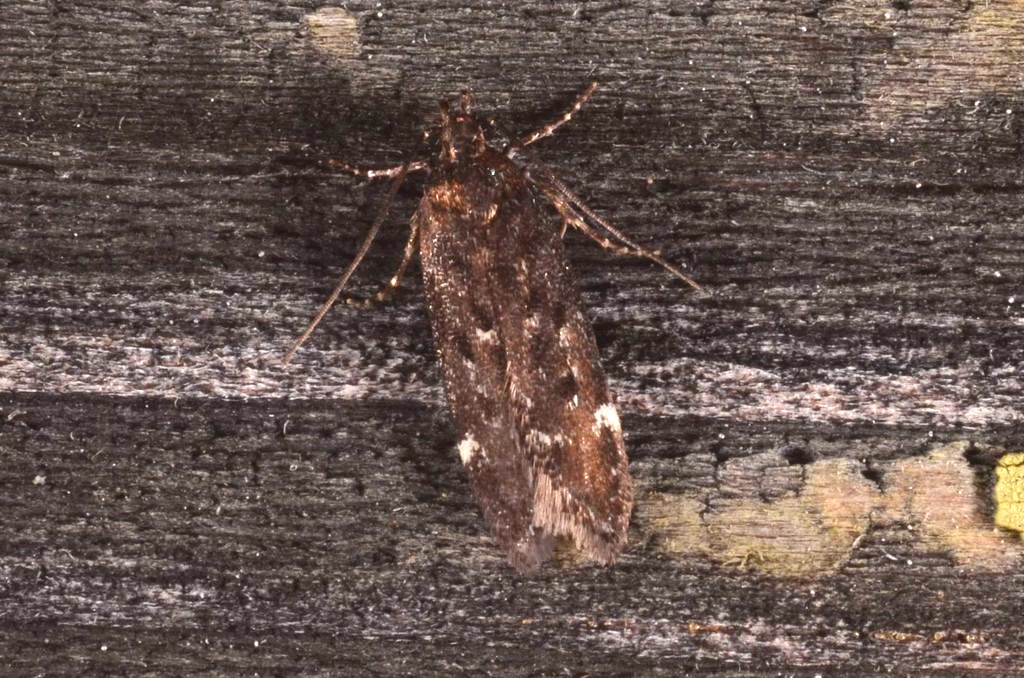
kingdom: Animalia
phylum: Arthropoda
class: Insecta
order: Lepidoptera
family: Gelechiidae
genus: Neofriseria
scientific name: Neofriseria peliella
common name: White-spot groundling
